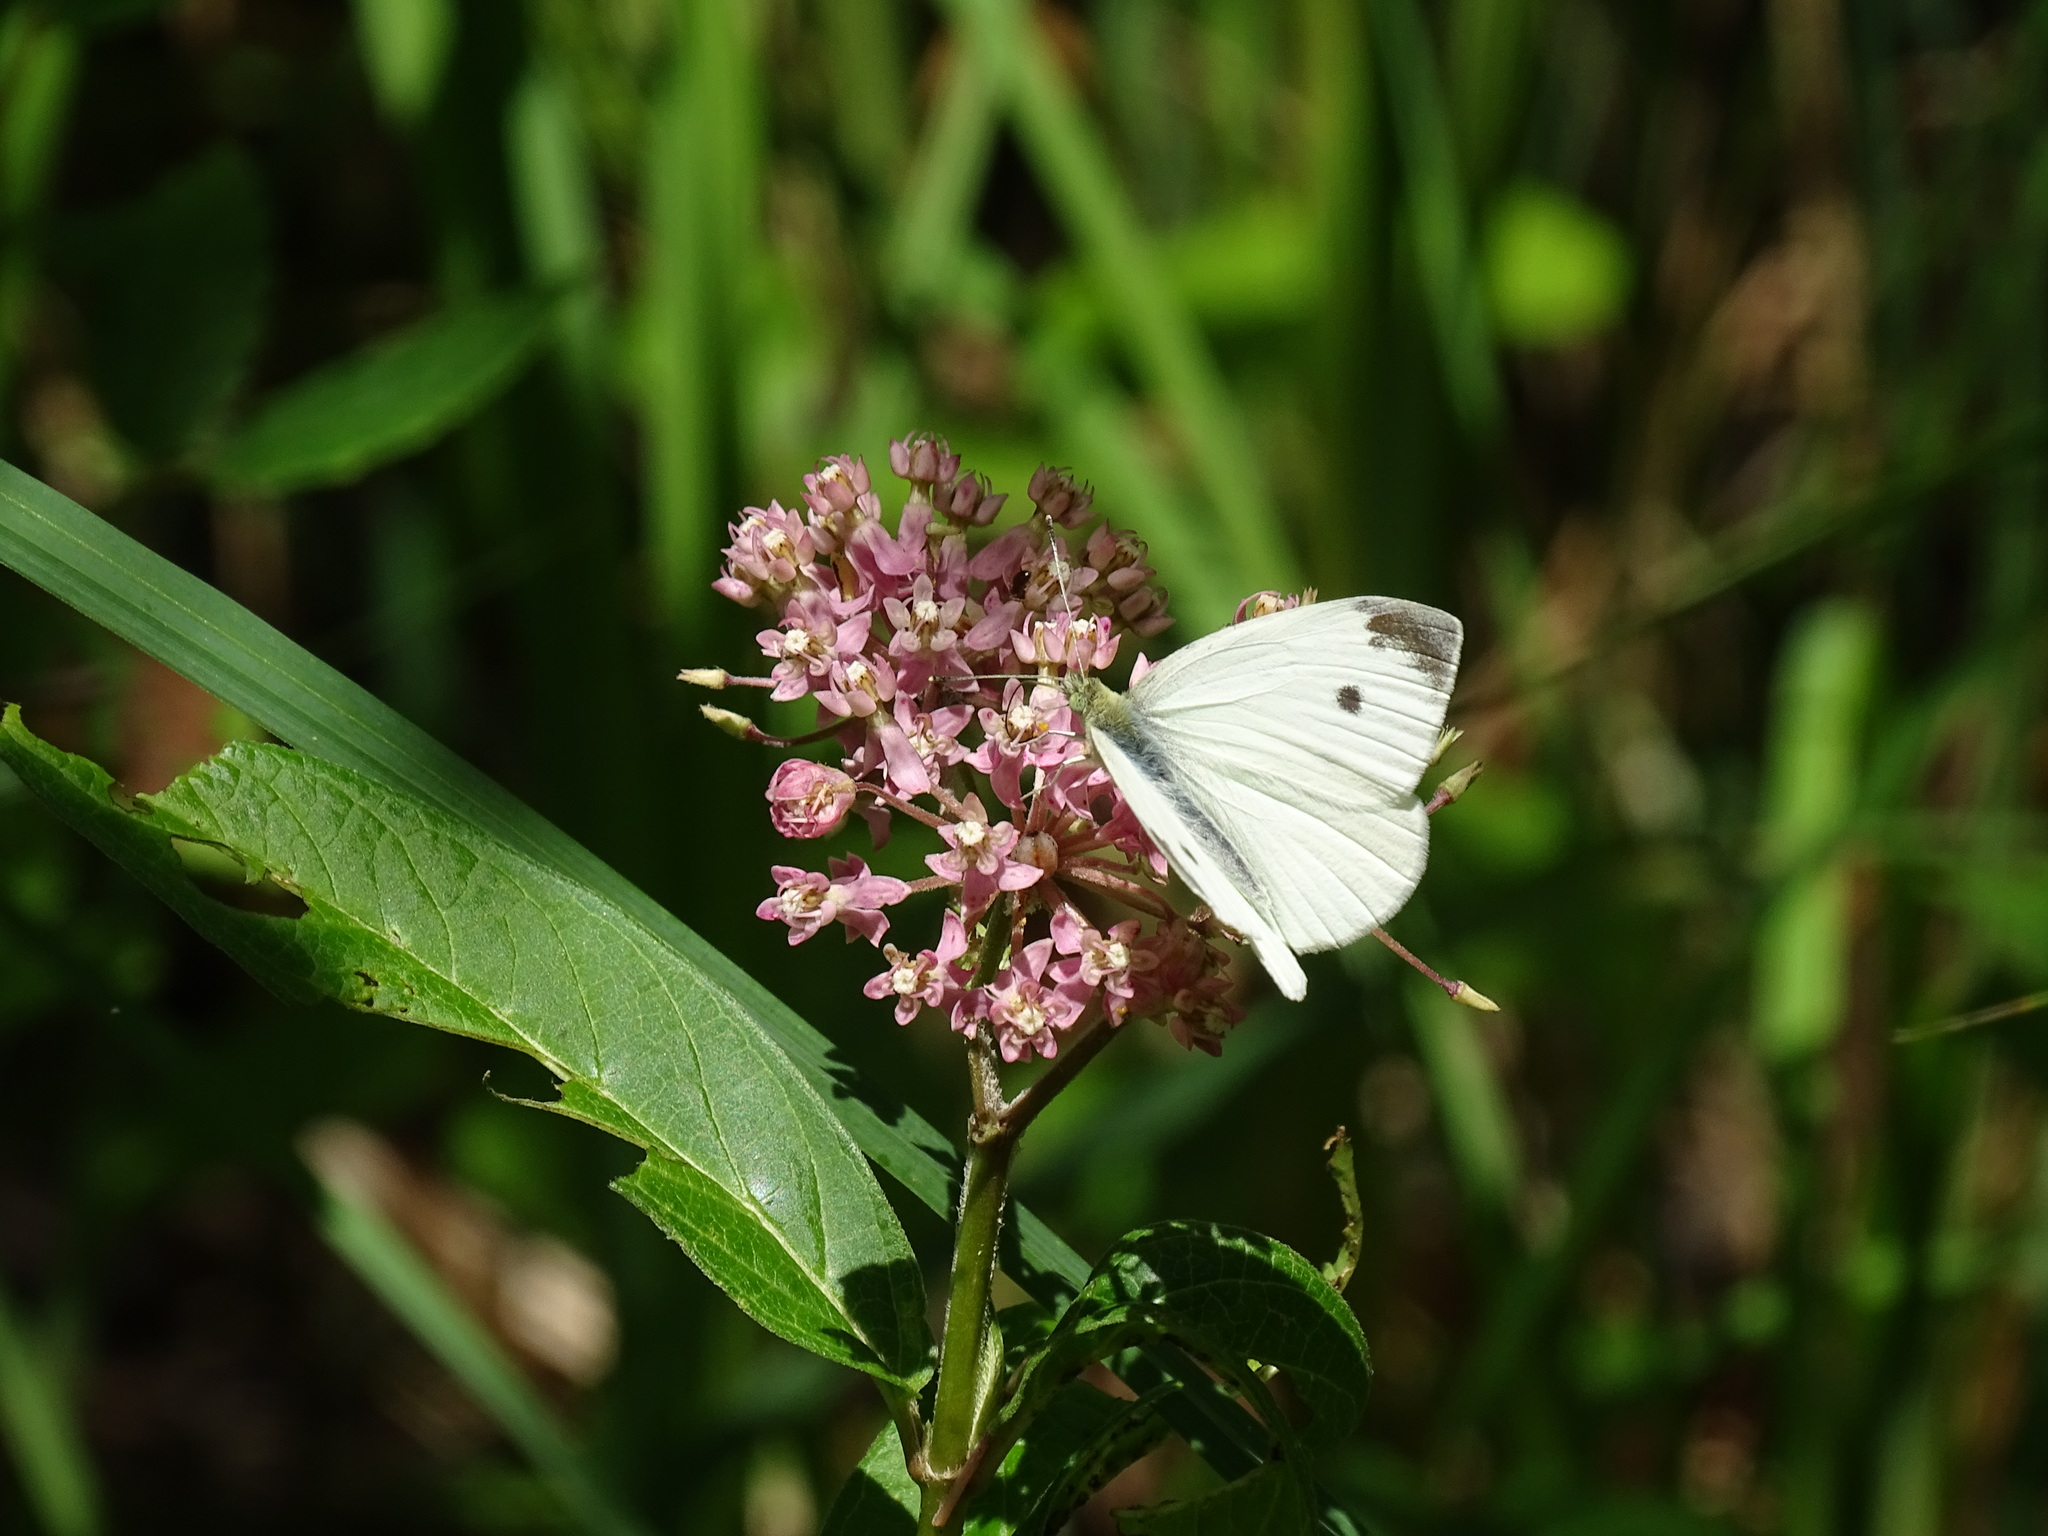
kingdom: Animalia
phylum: Arthropoda
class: Insecta
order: Lepidoptera
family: Pieridae
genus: Pieris
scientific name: Pieris rapae
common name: Small white
